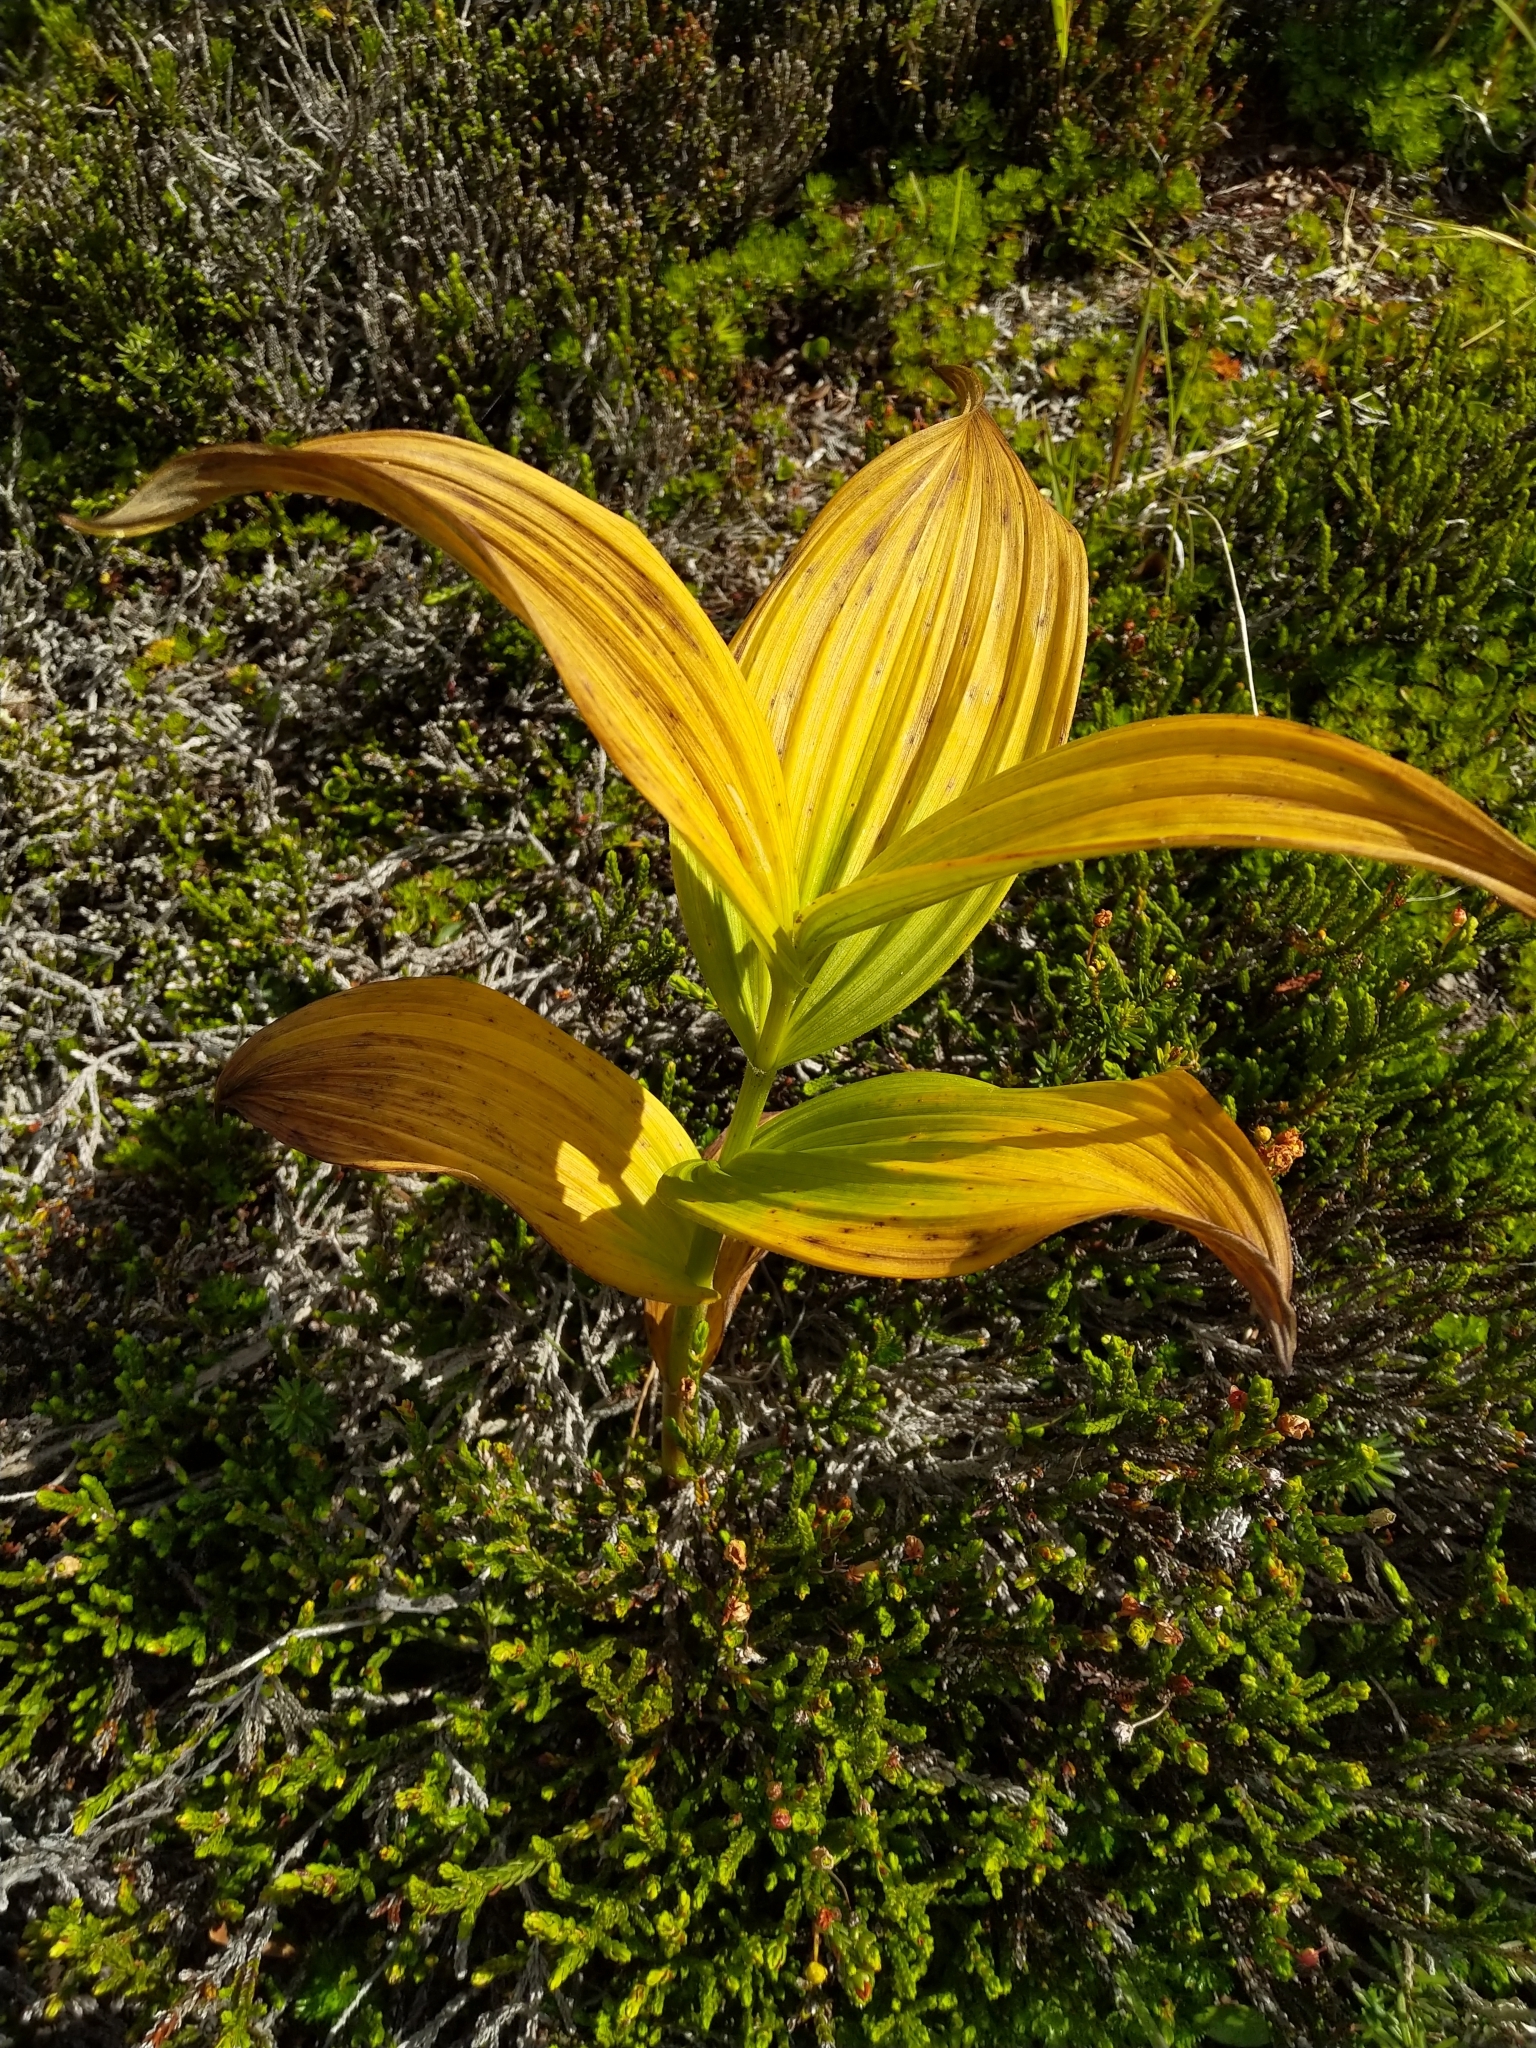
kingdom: Plantae
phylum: Tracheophyta
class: Liliopsida
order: Liliales
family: Melanthiaceae
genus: Veratrum
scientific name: Veratrum viride
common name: American false hellebore
